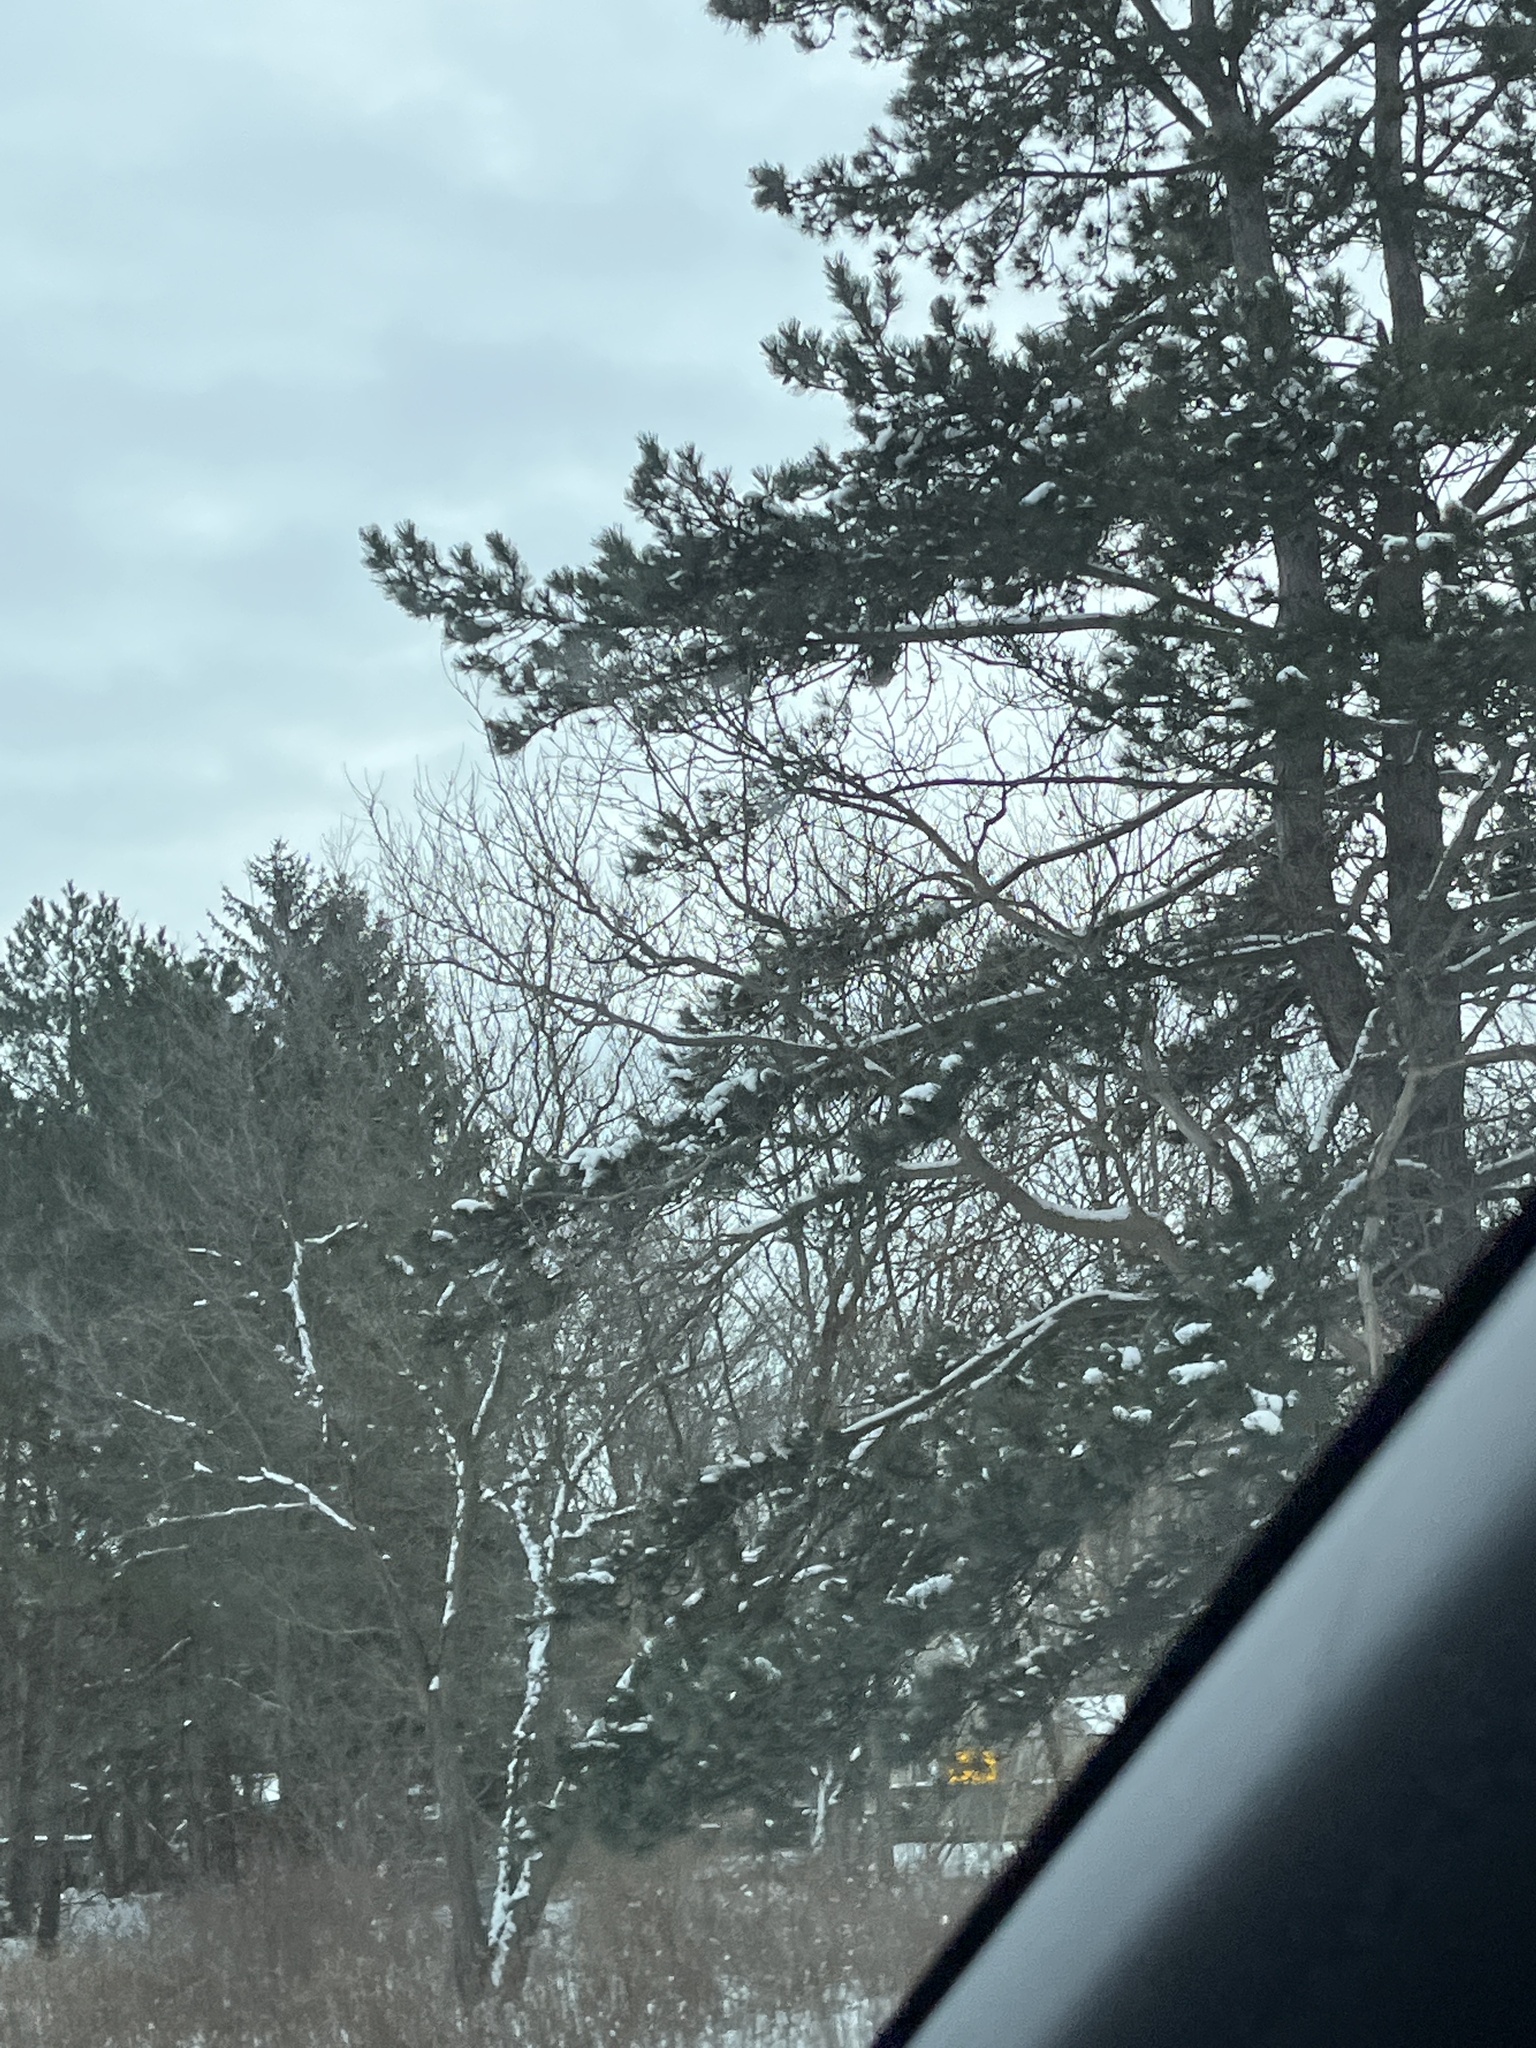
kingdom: Plantae
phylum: Tracheophyta
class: Pinopsida
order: Pinales
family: Pinaceae
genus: Pinus
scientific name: Pinus strobus
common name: Weymouth pine
